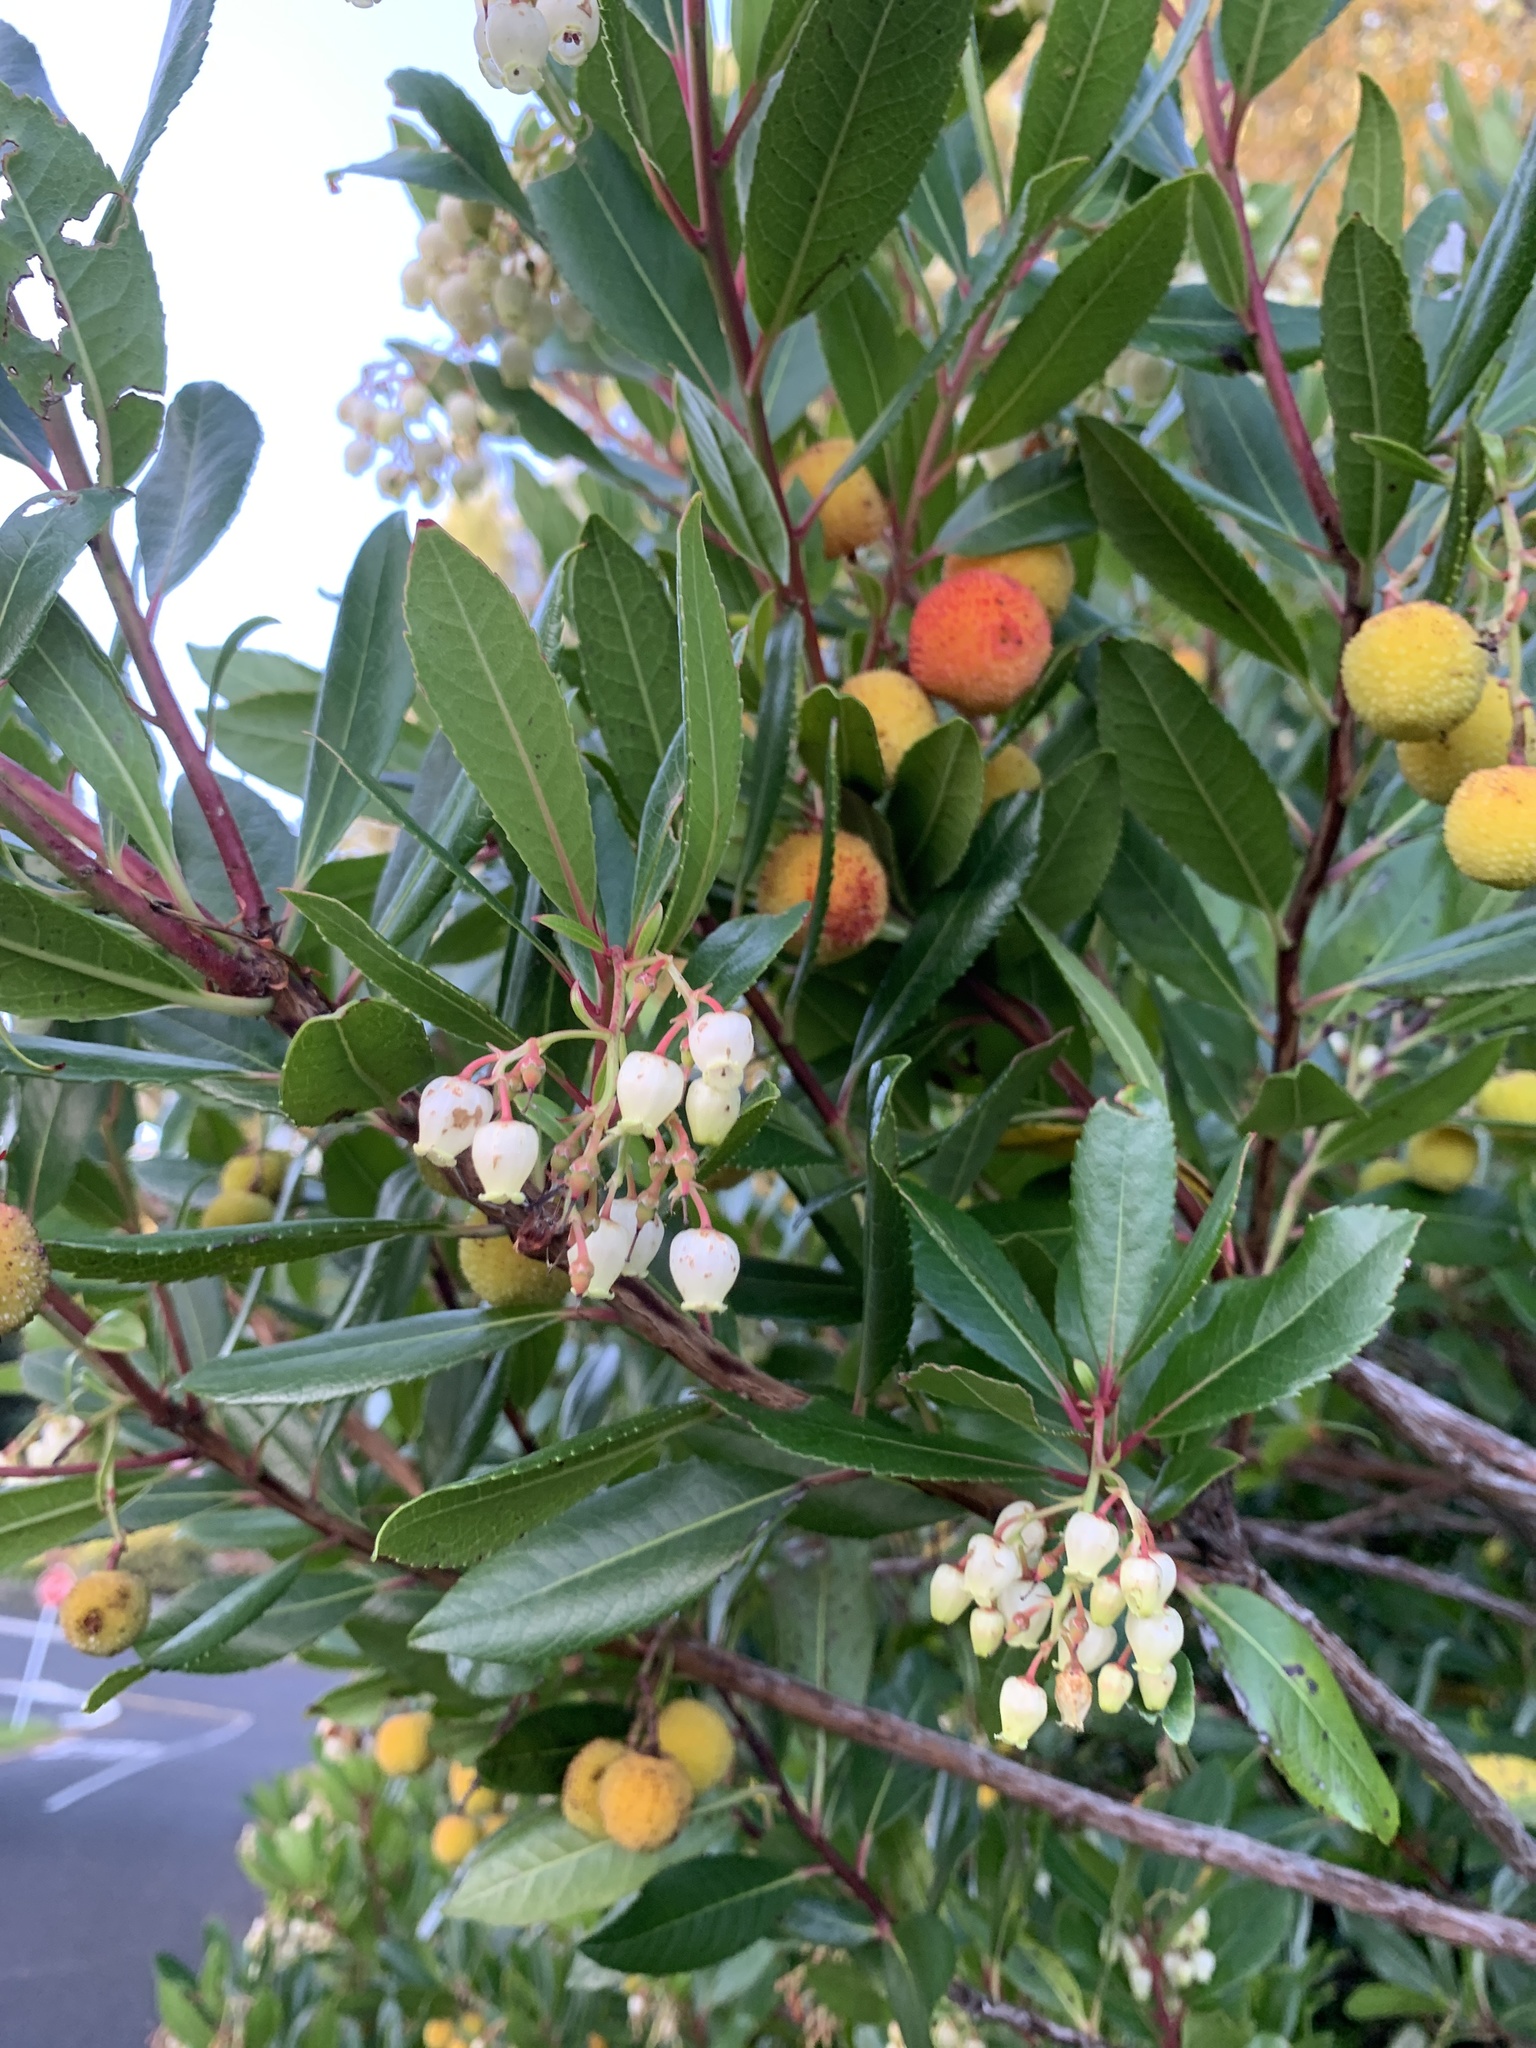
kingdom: Plantae
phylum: Tracheophyta
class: Magnoliopsida
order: Ericales
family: Ericaceae
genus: Arbutus
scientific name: Arbutus unedo
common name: Strawberry-tree
